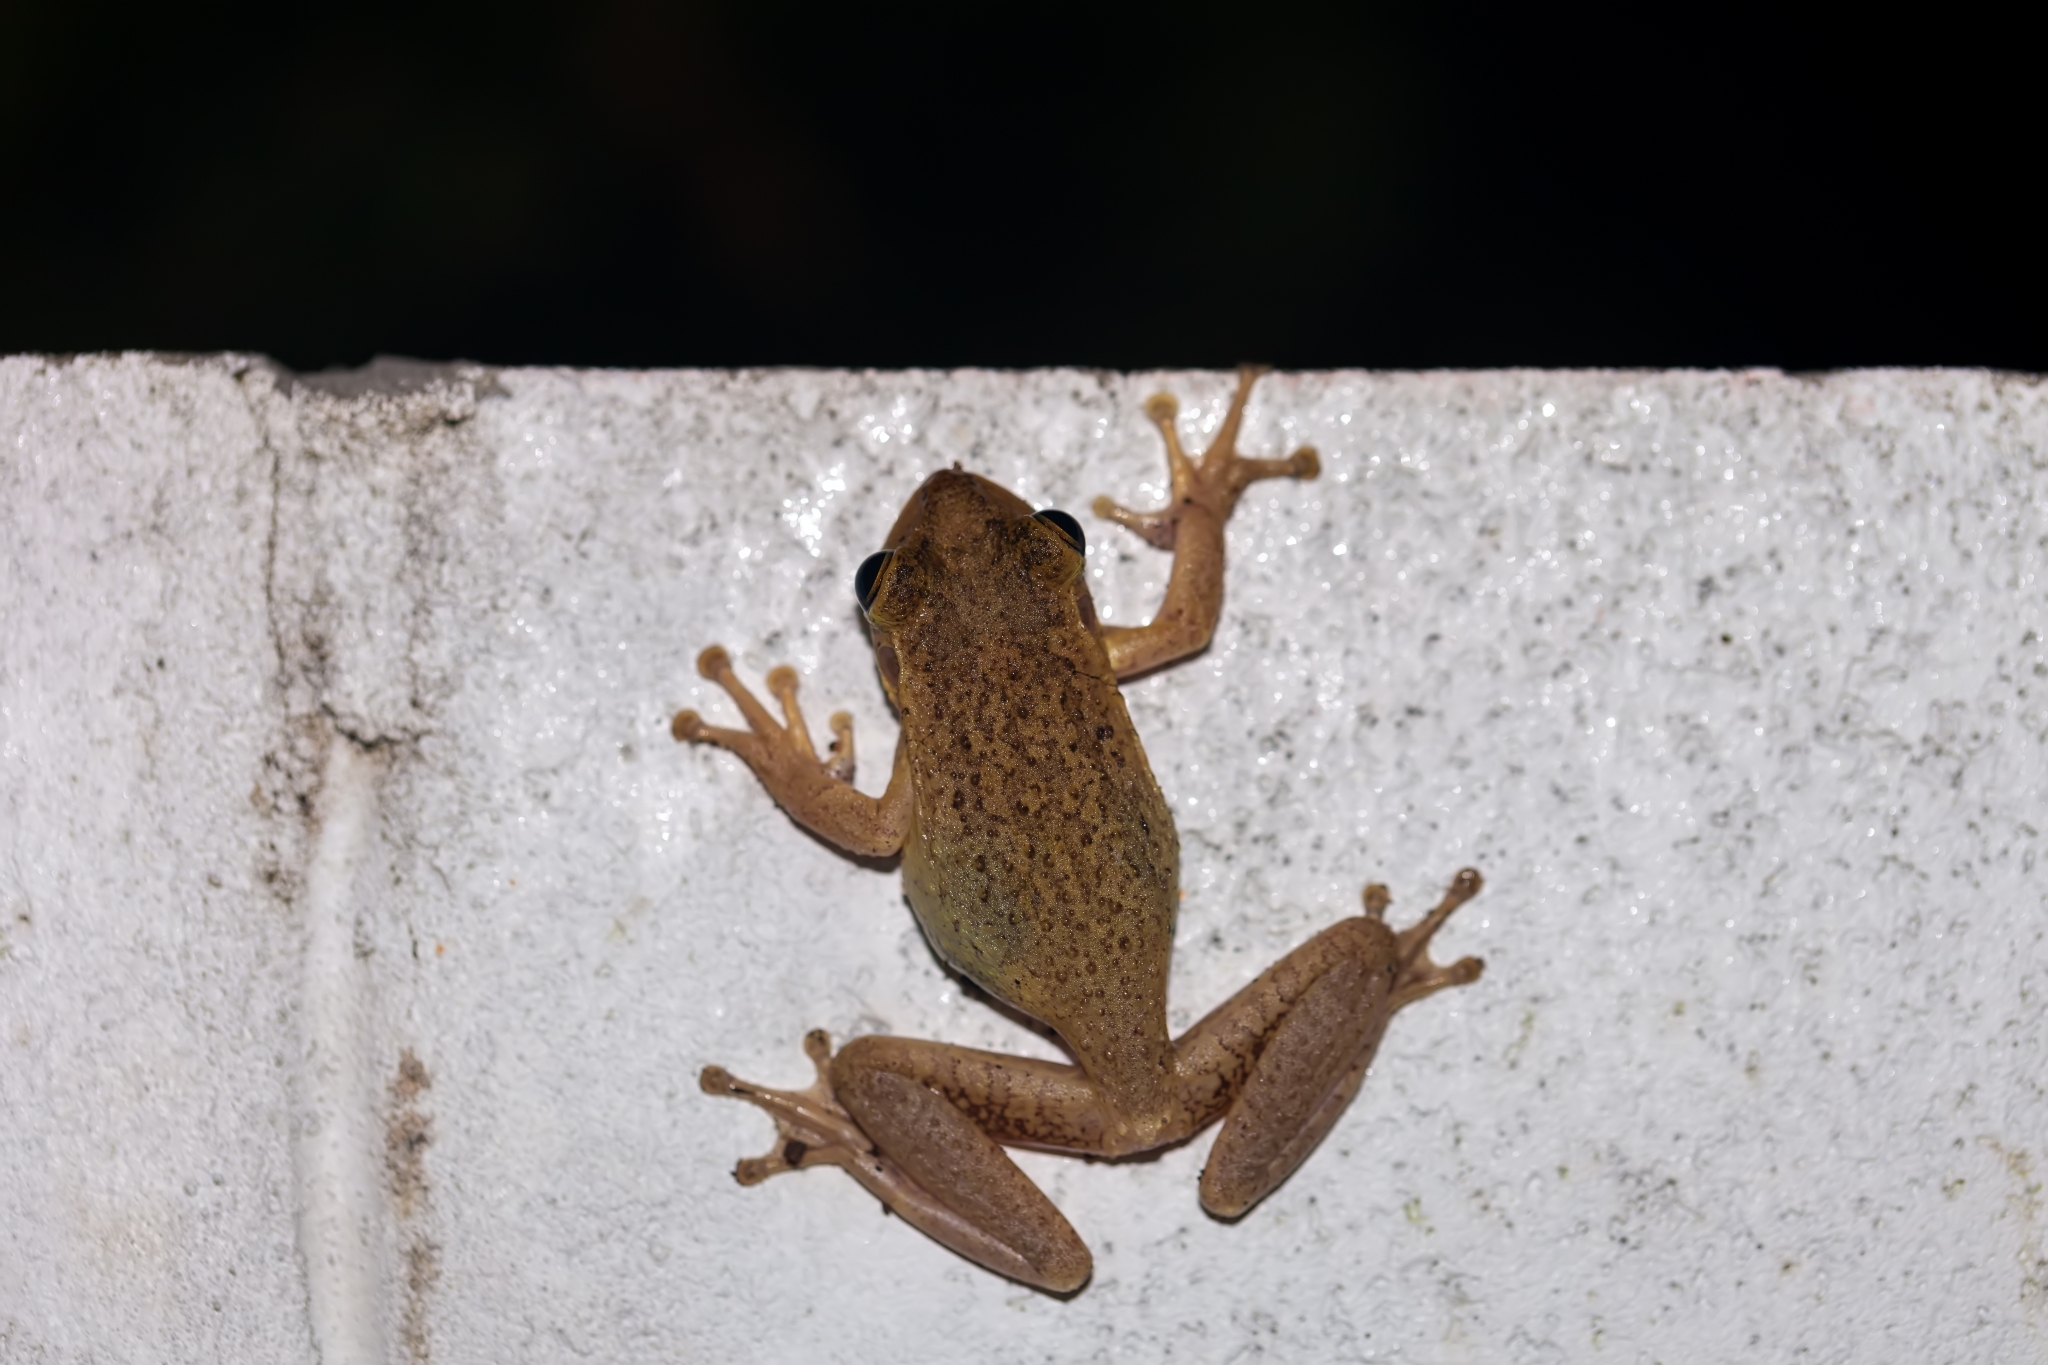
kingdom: Animalia
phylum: Chordata
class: Amphibia
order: Anura
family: Hylidae
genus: Osteopilus
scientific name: Osteopilus septentrionalis
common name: Cuban treefrog
